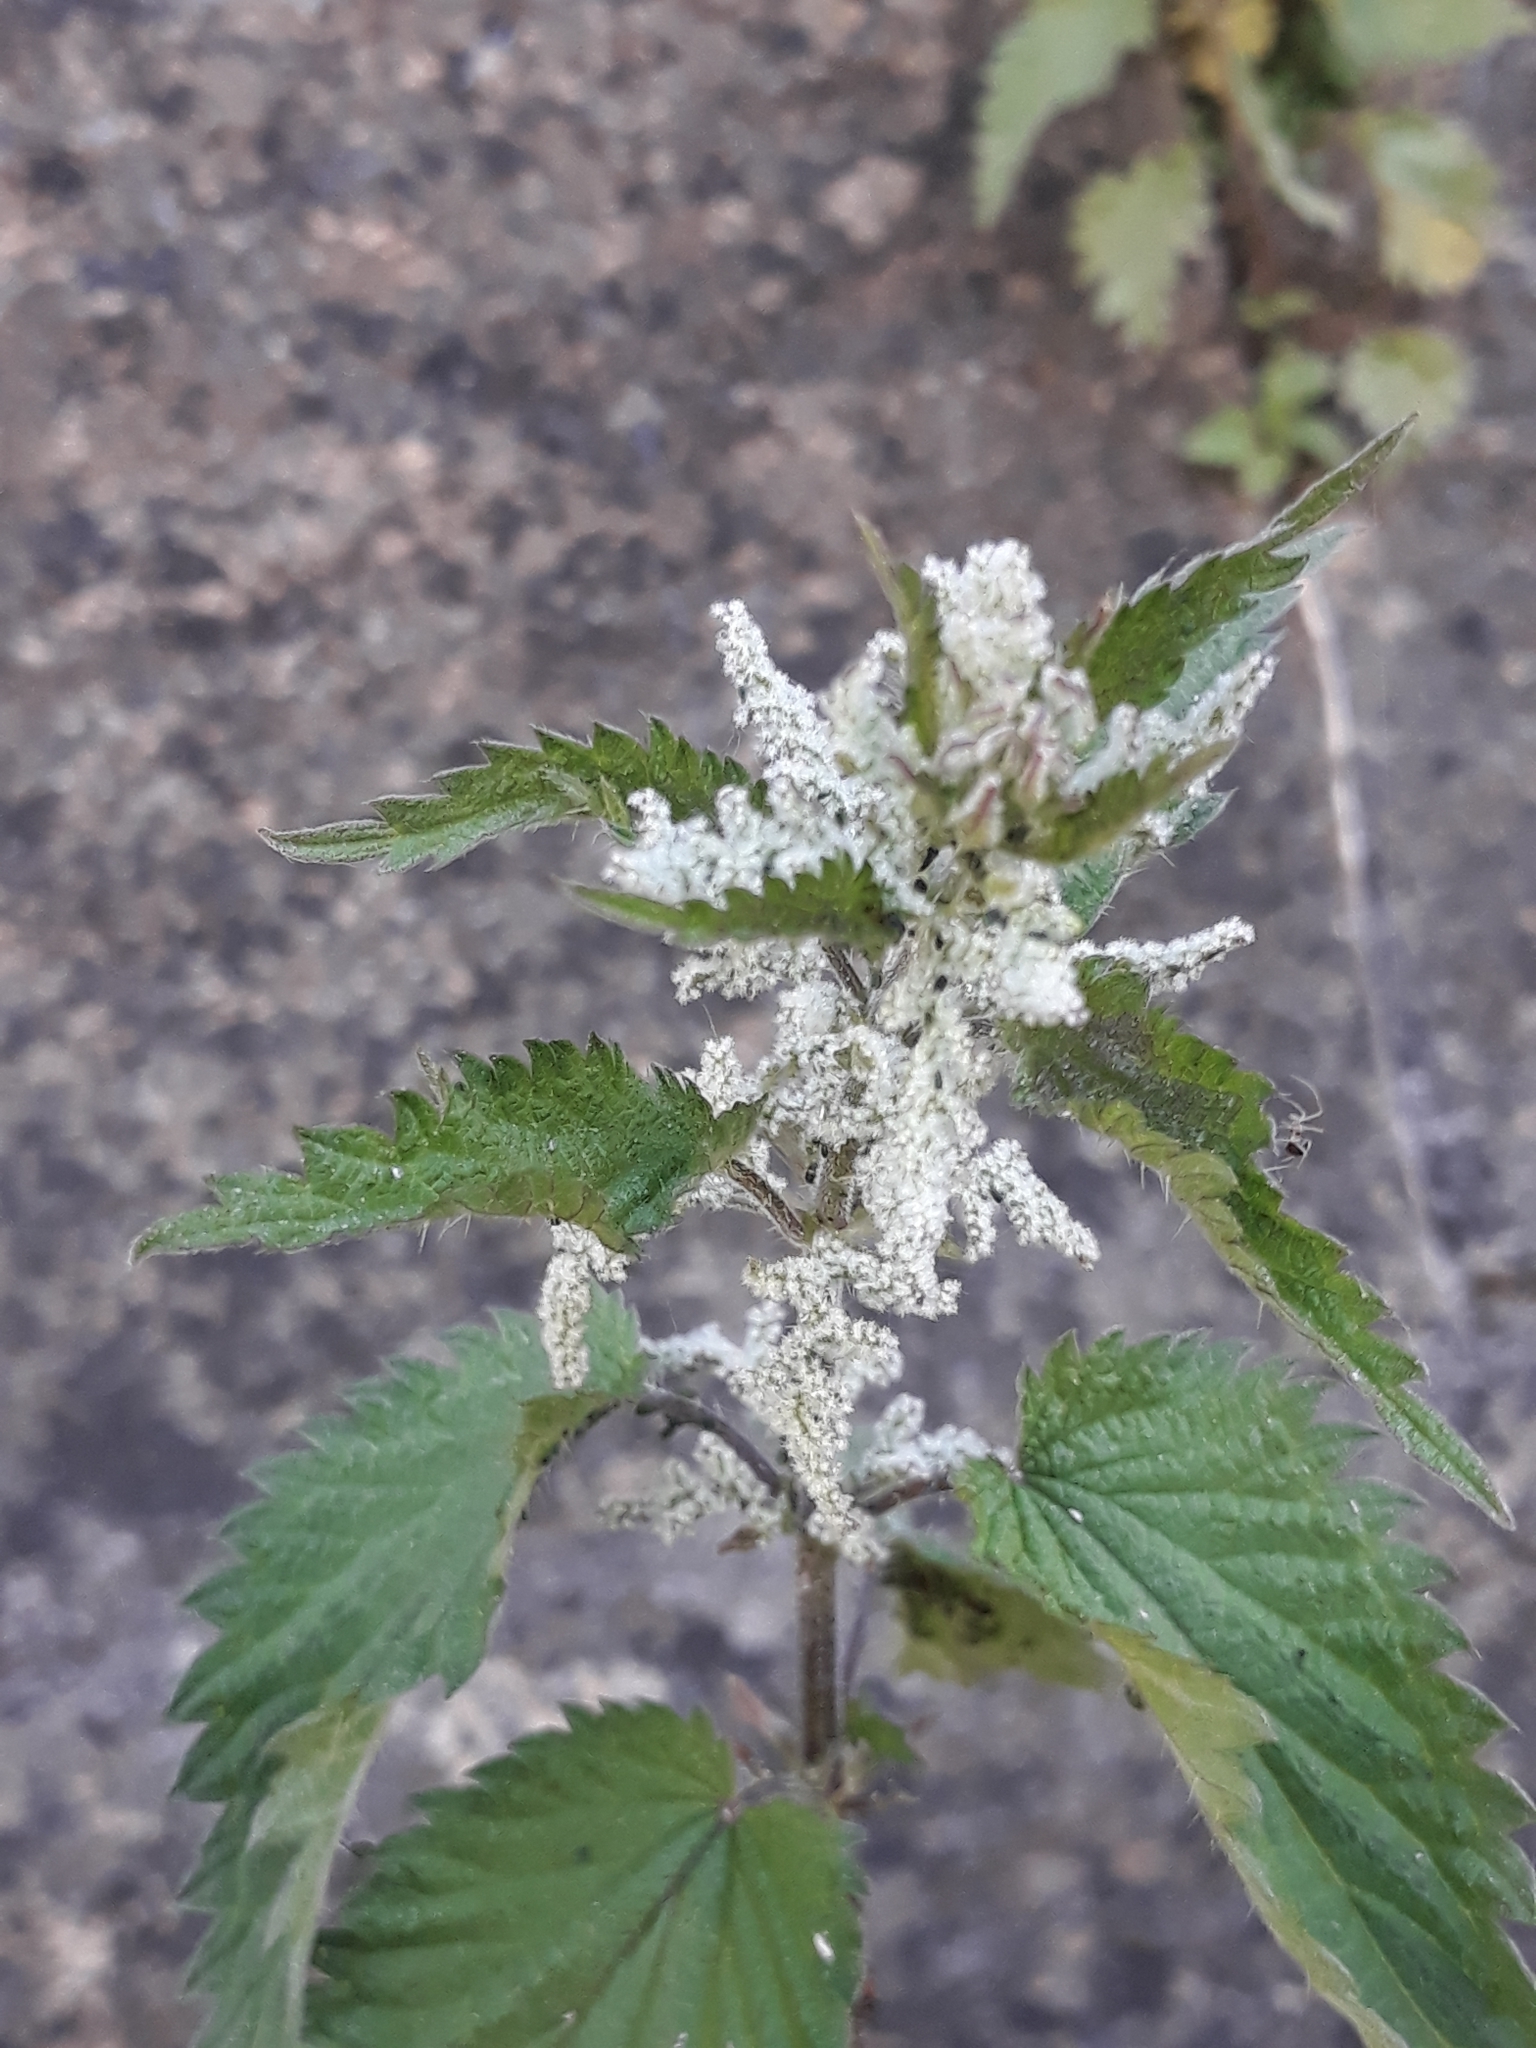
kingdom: Plantae
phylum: Tracheophyta
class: Magnoliopsida
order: Rosales
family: Urticaceae
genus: Urtica
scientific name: Urtica dioica
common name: Common nettle
